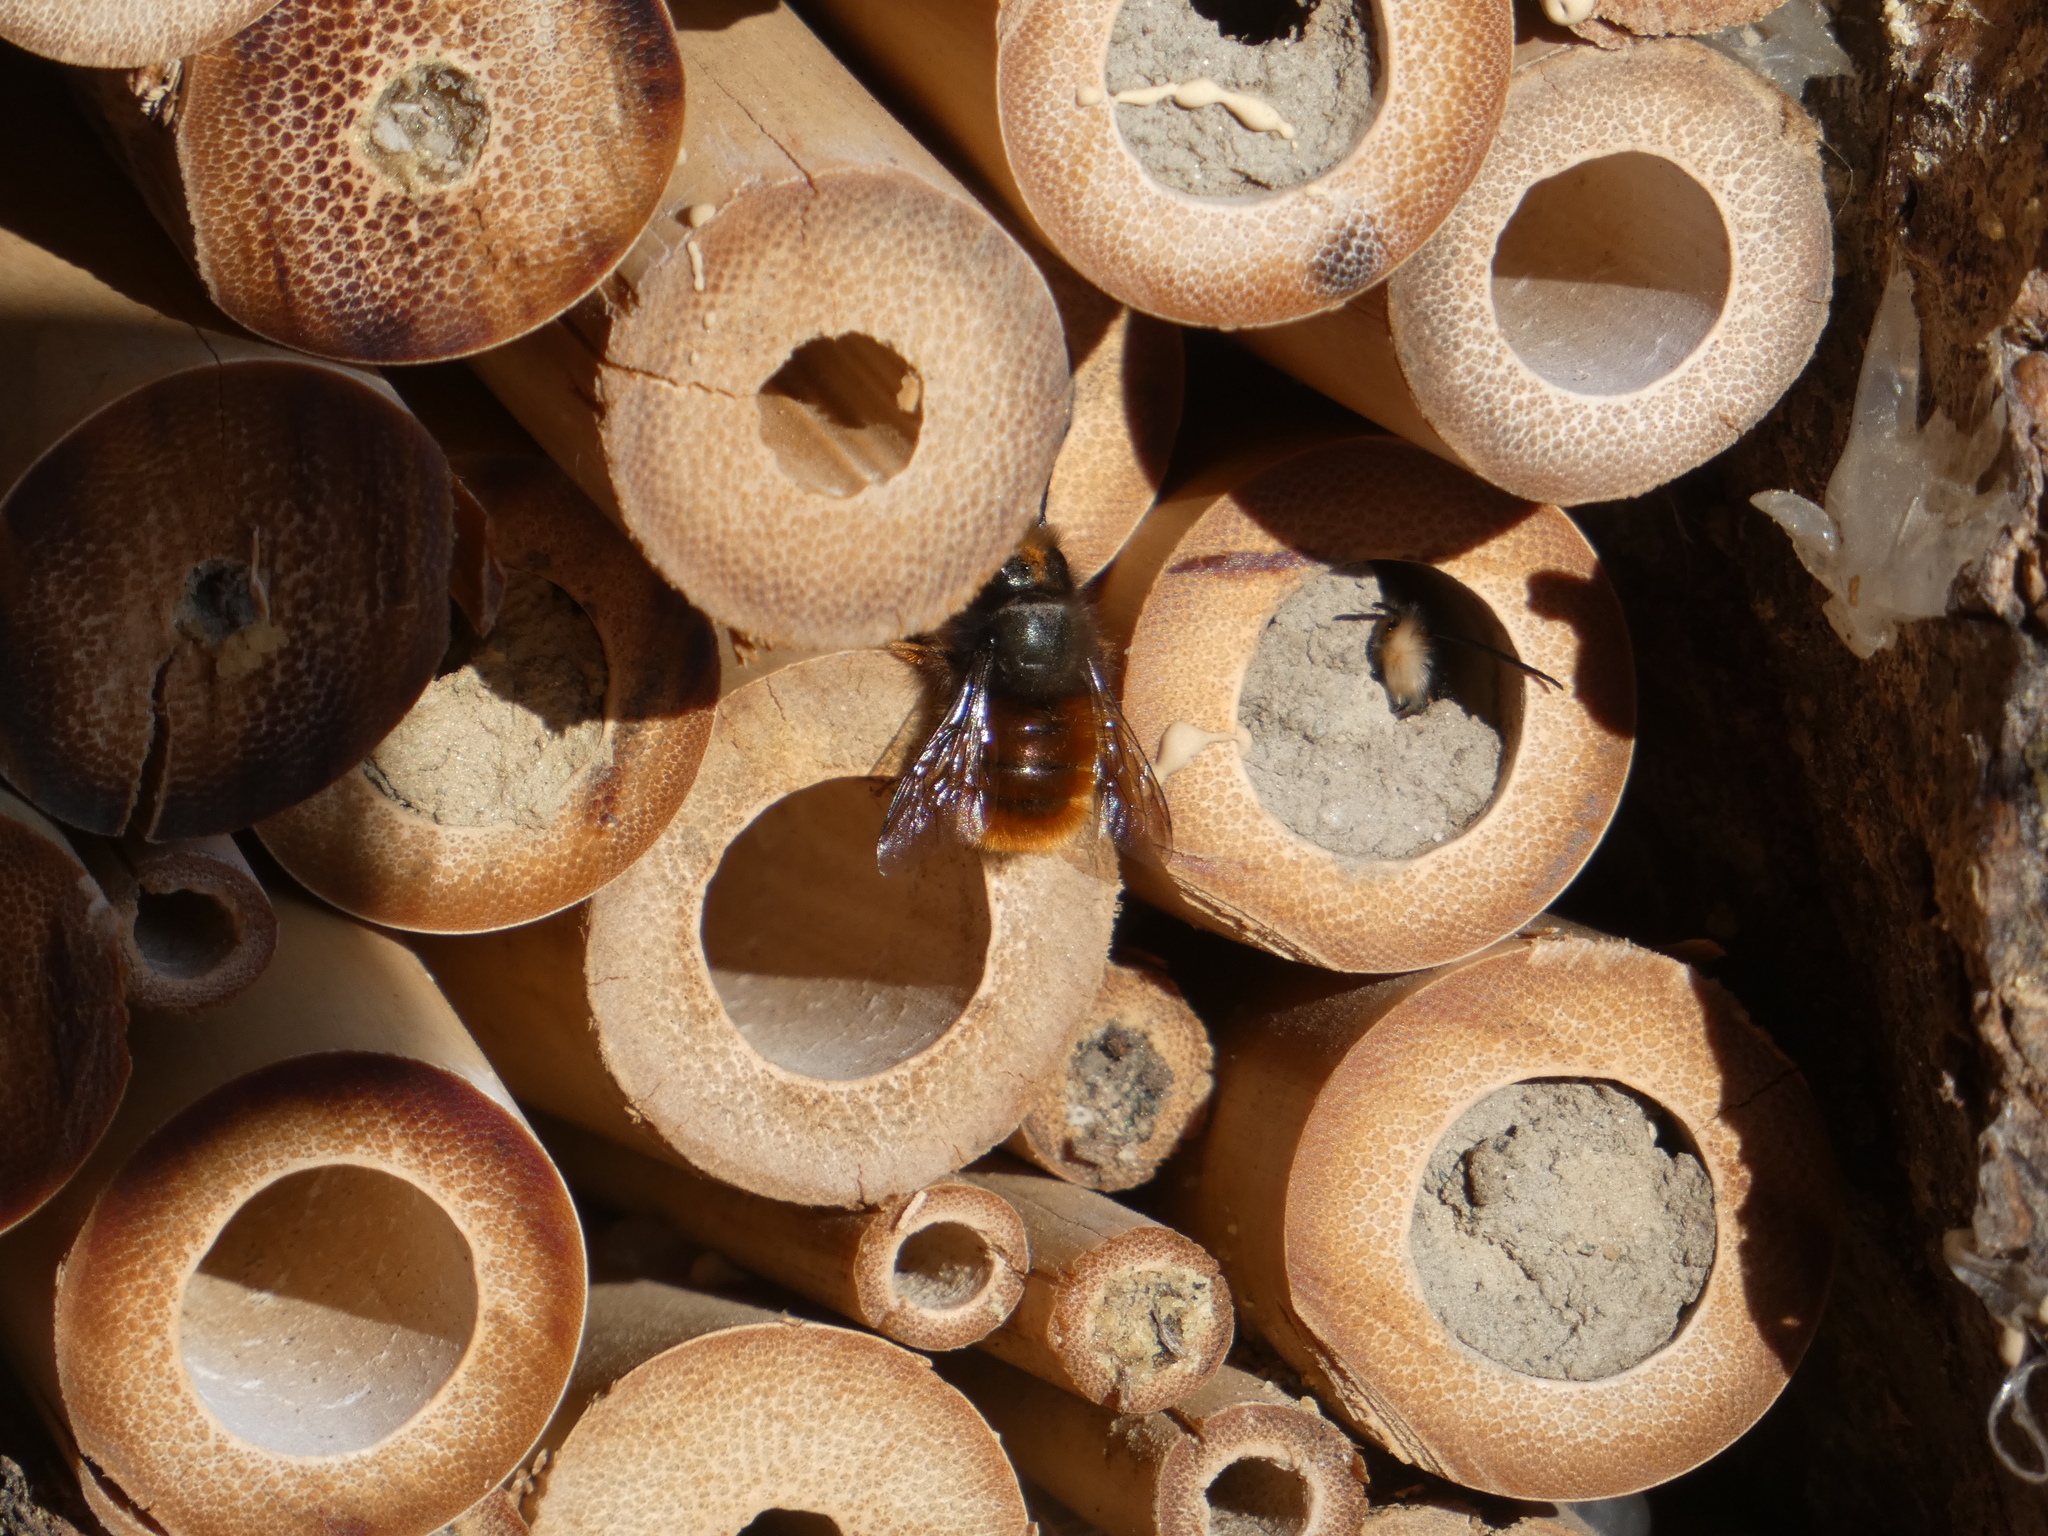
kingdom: Animalia
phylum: Arthropoda
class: Insecta
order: Hymenoptera
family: Megachilidae
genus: Osmia
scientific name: Osmia cornuta
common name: Mason bee
